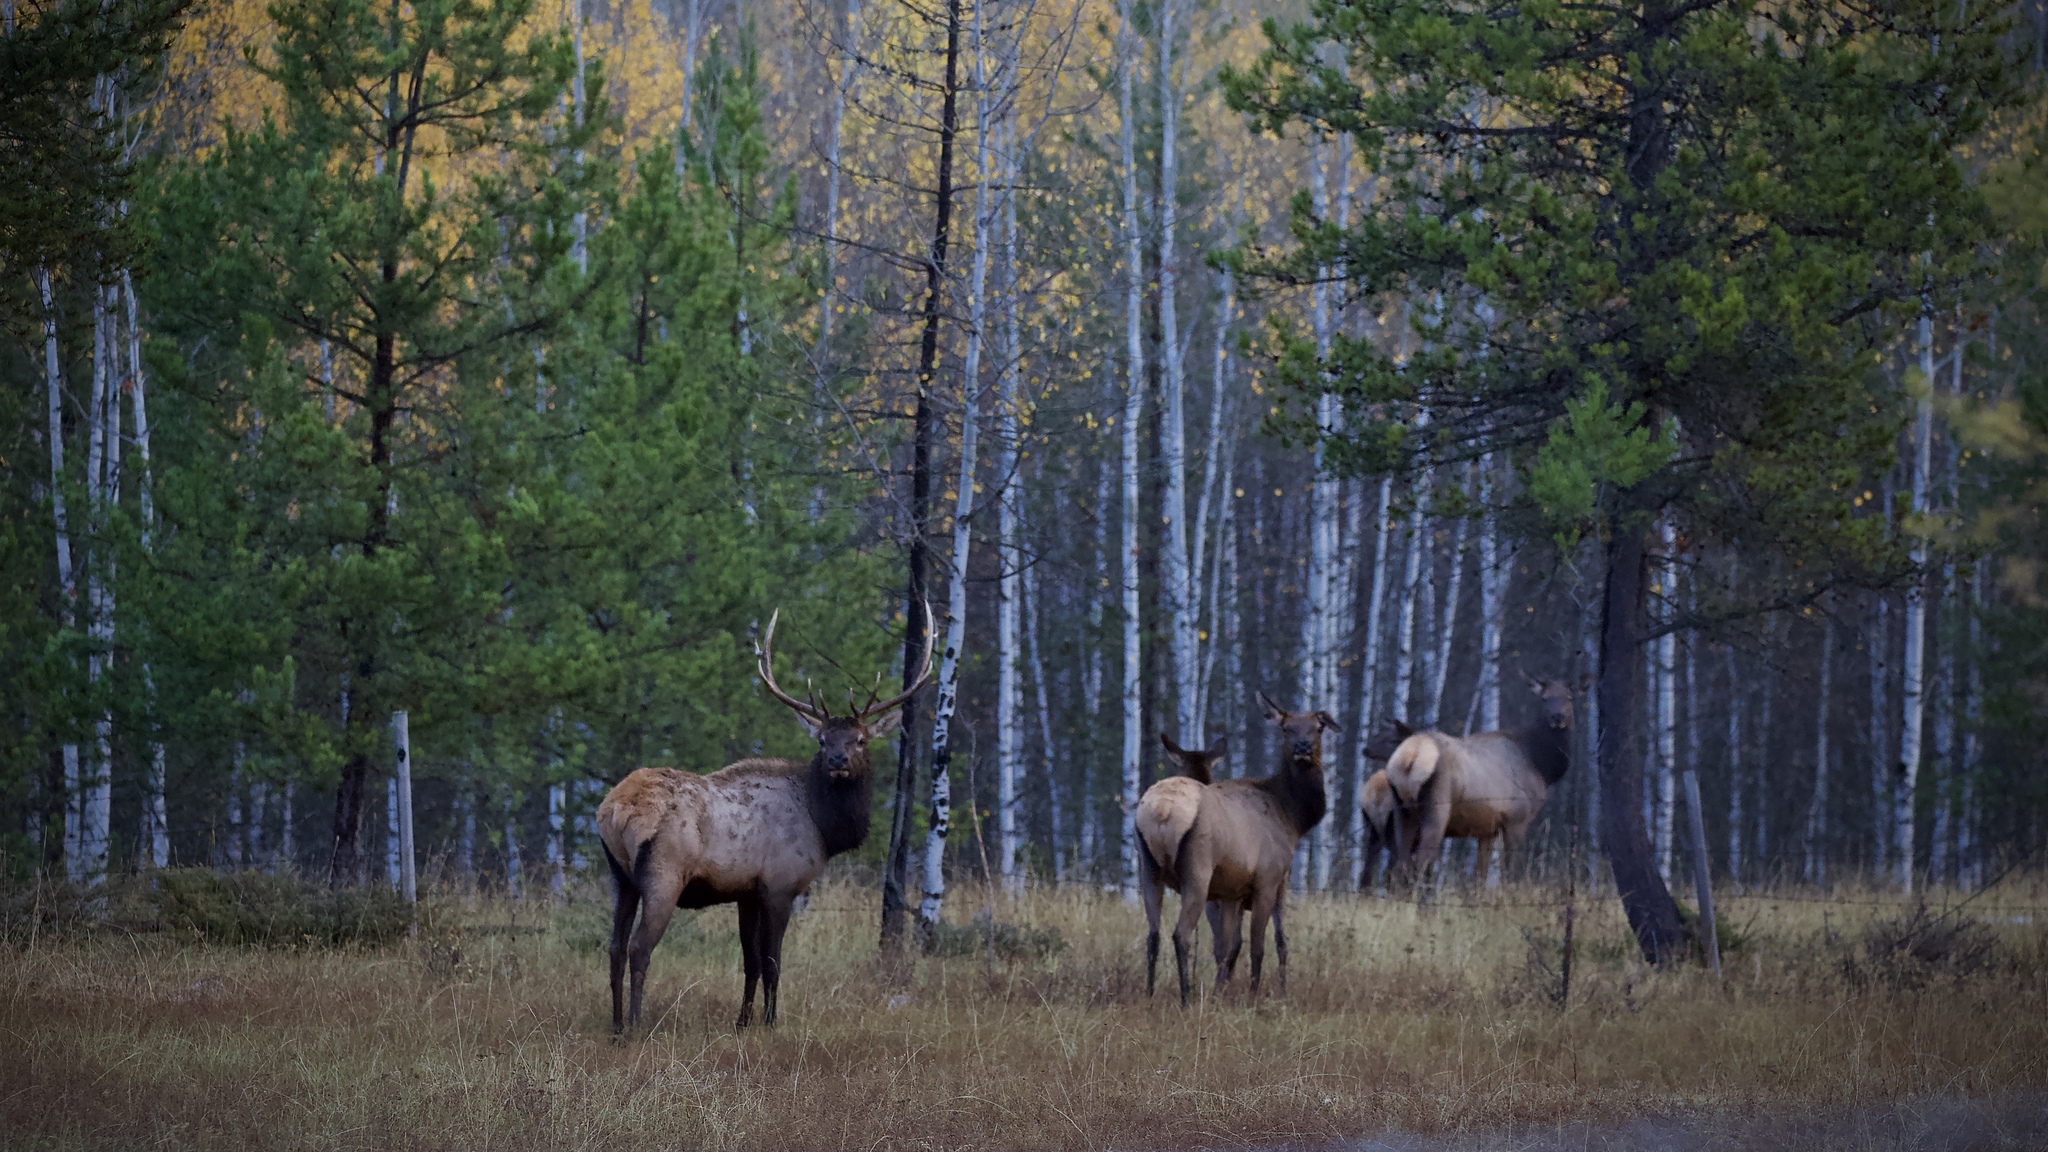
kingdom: Animalia
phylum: Chordata
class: Mammalia
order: Artiodactyla
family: Cervidae
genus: Cervus
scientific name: Cervus elaphus
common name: Red deer
